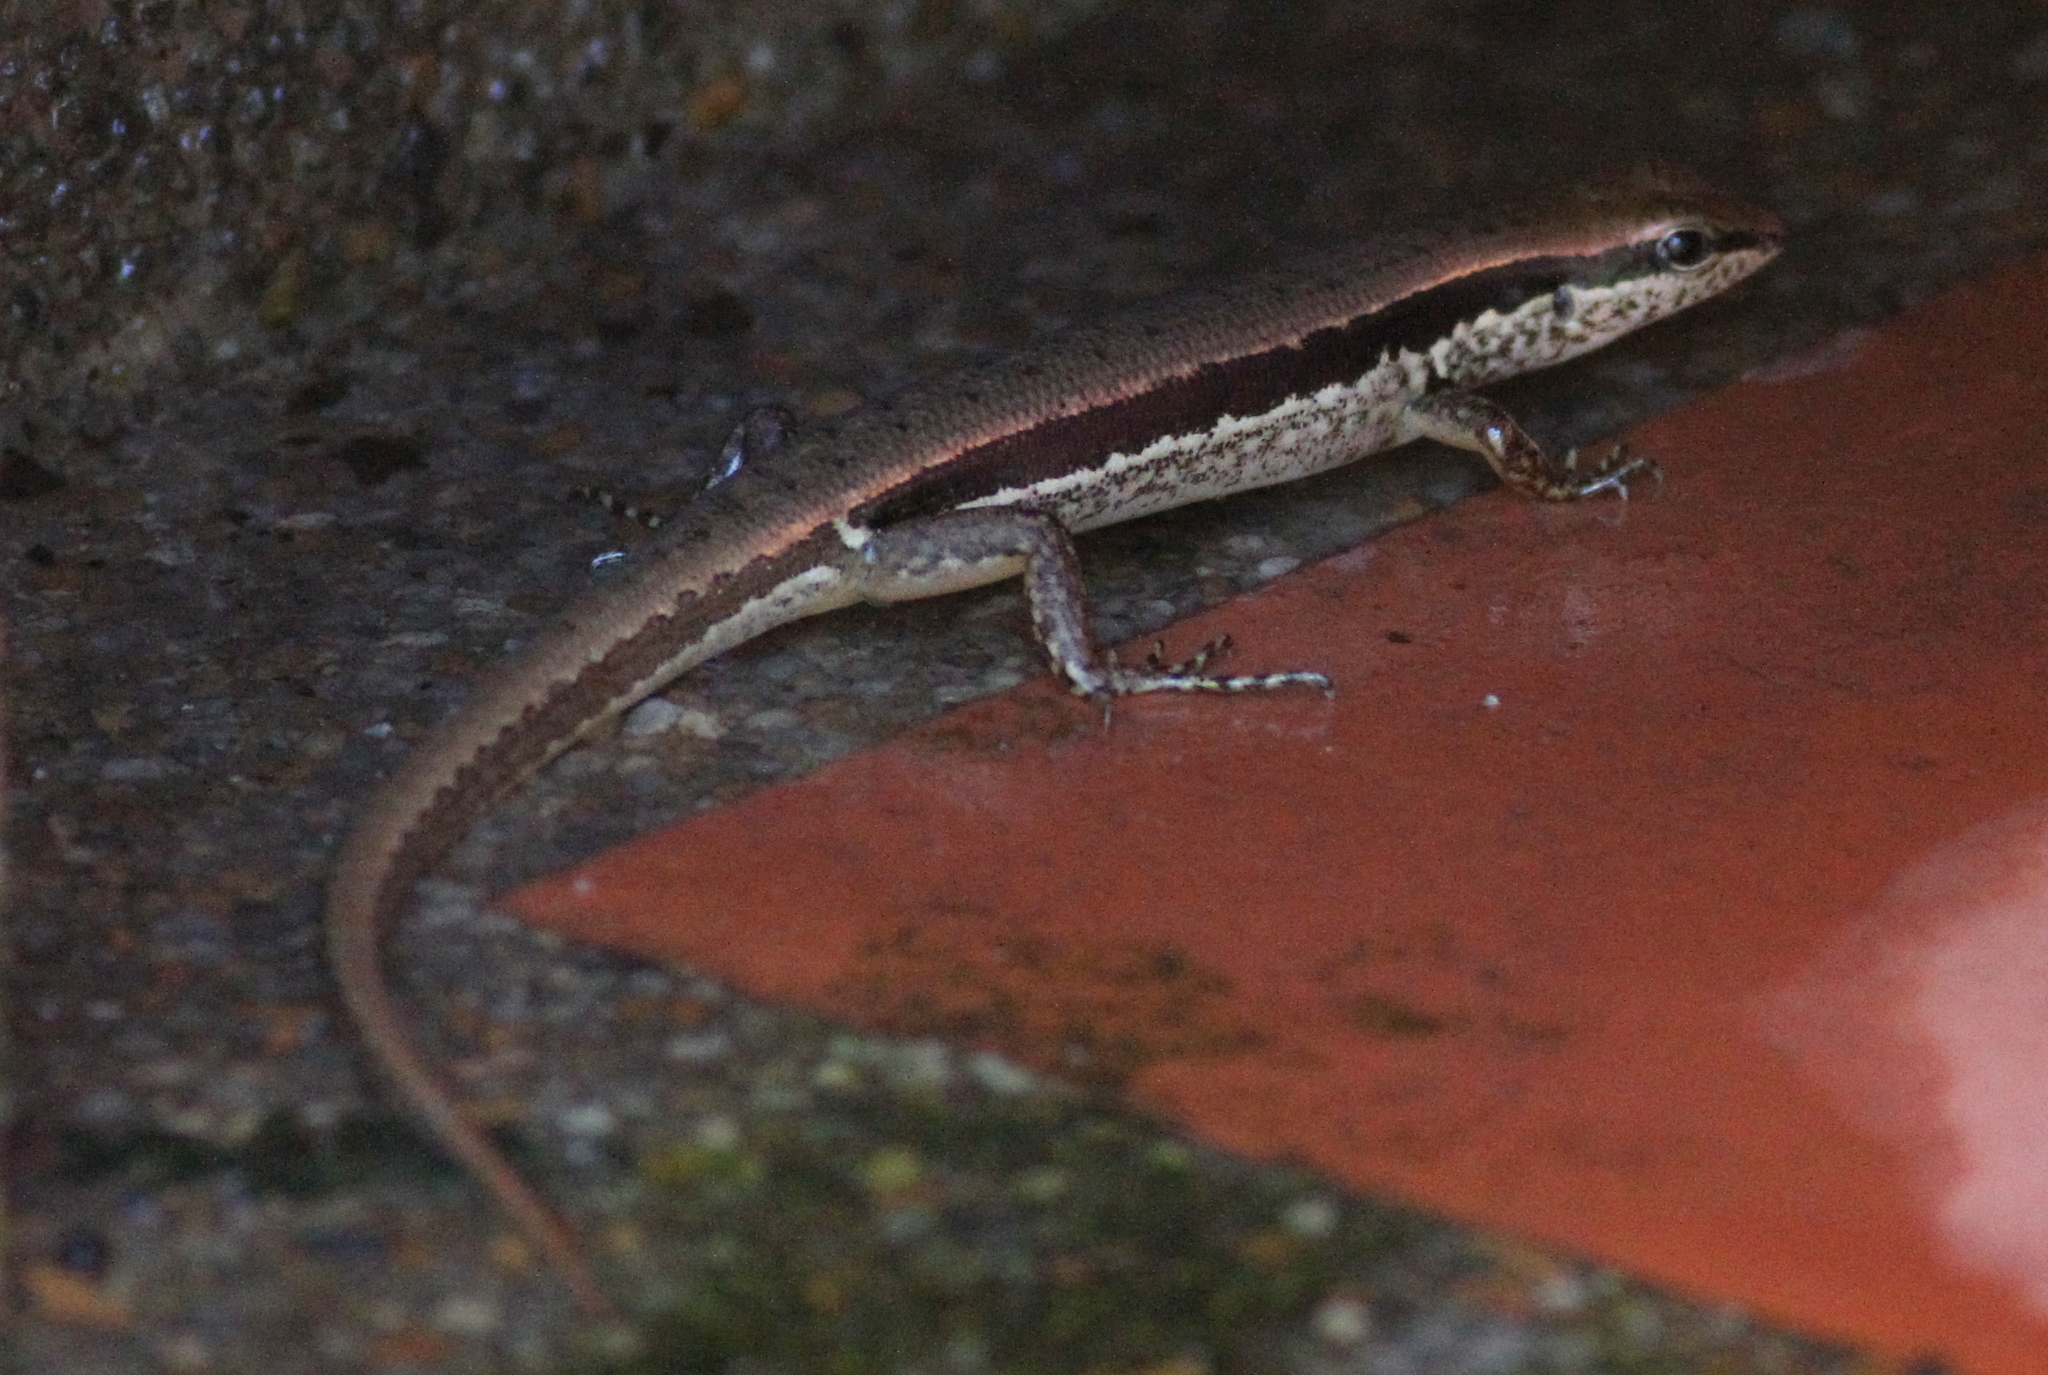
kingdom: Animalia
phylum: Chordata
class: Squamata
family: Scincidae
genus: Sphenomorphus
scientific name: Sphenomorphus maculatus
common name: Maculated forest skink
